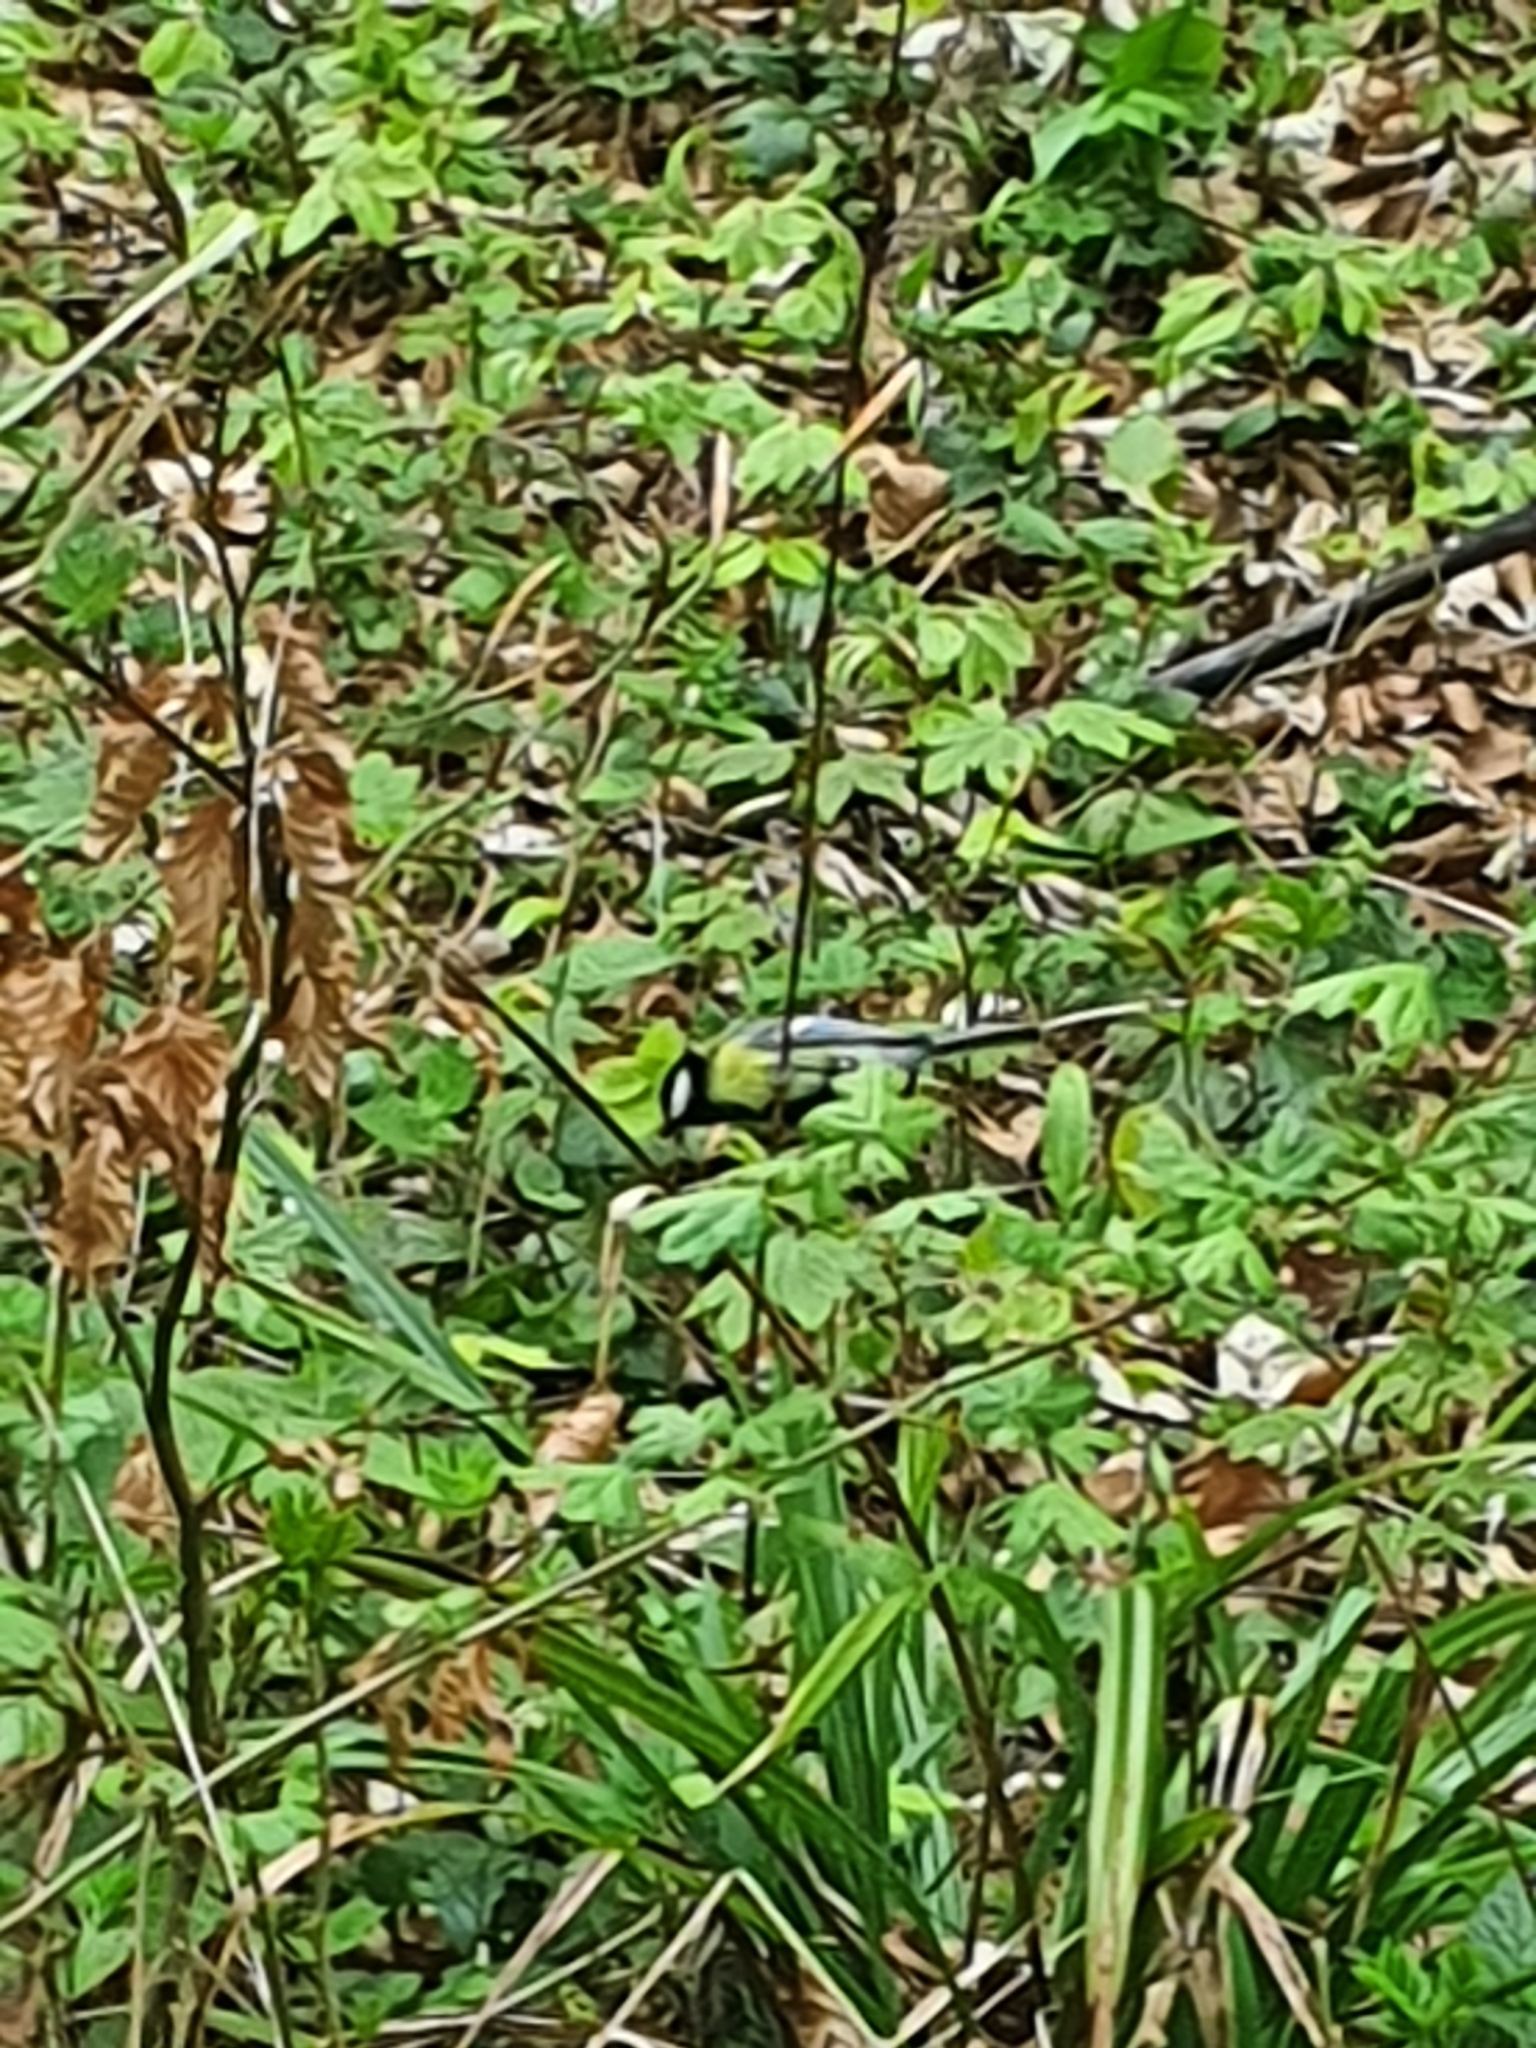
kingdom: Animalia
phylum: Chordata
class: Aves
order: Passeriformes
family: Paridae
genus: Parus
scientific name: Parus major
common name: Great tit
